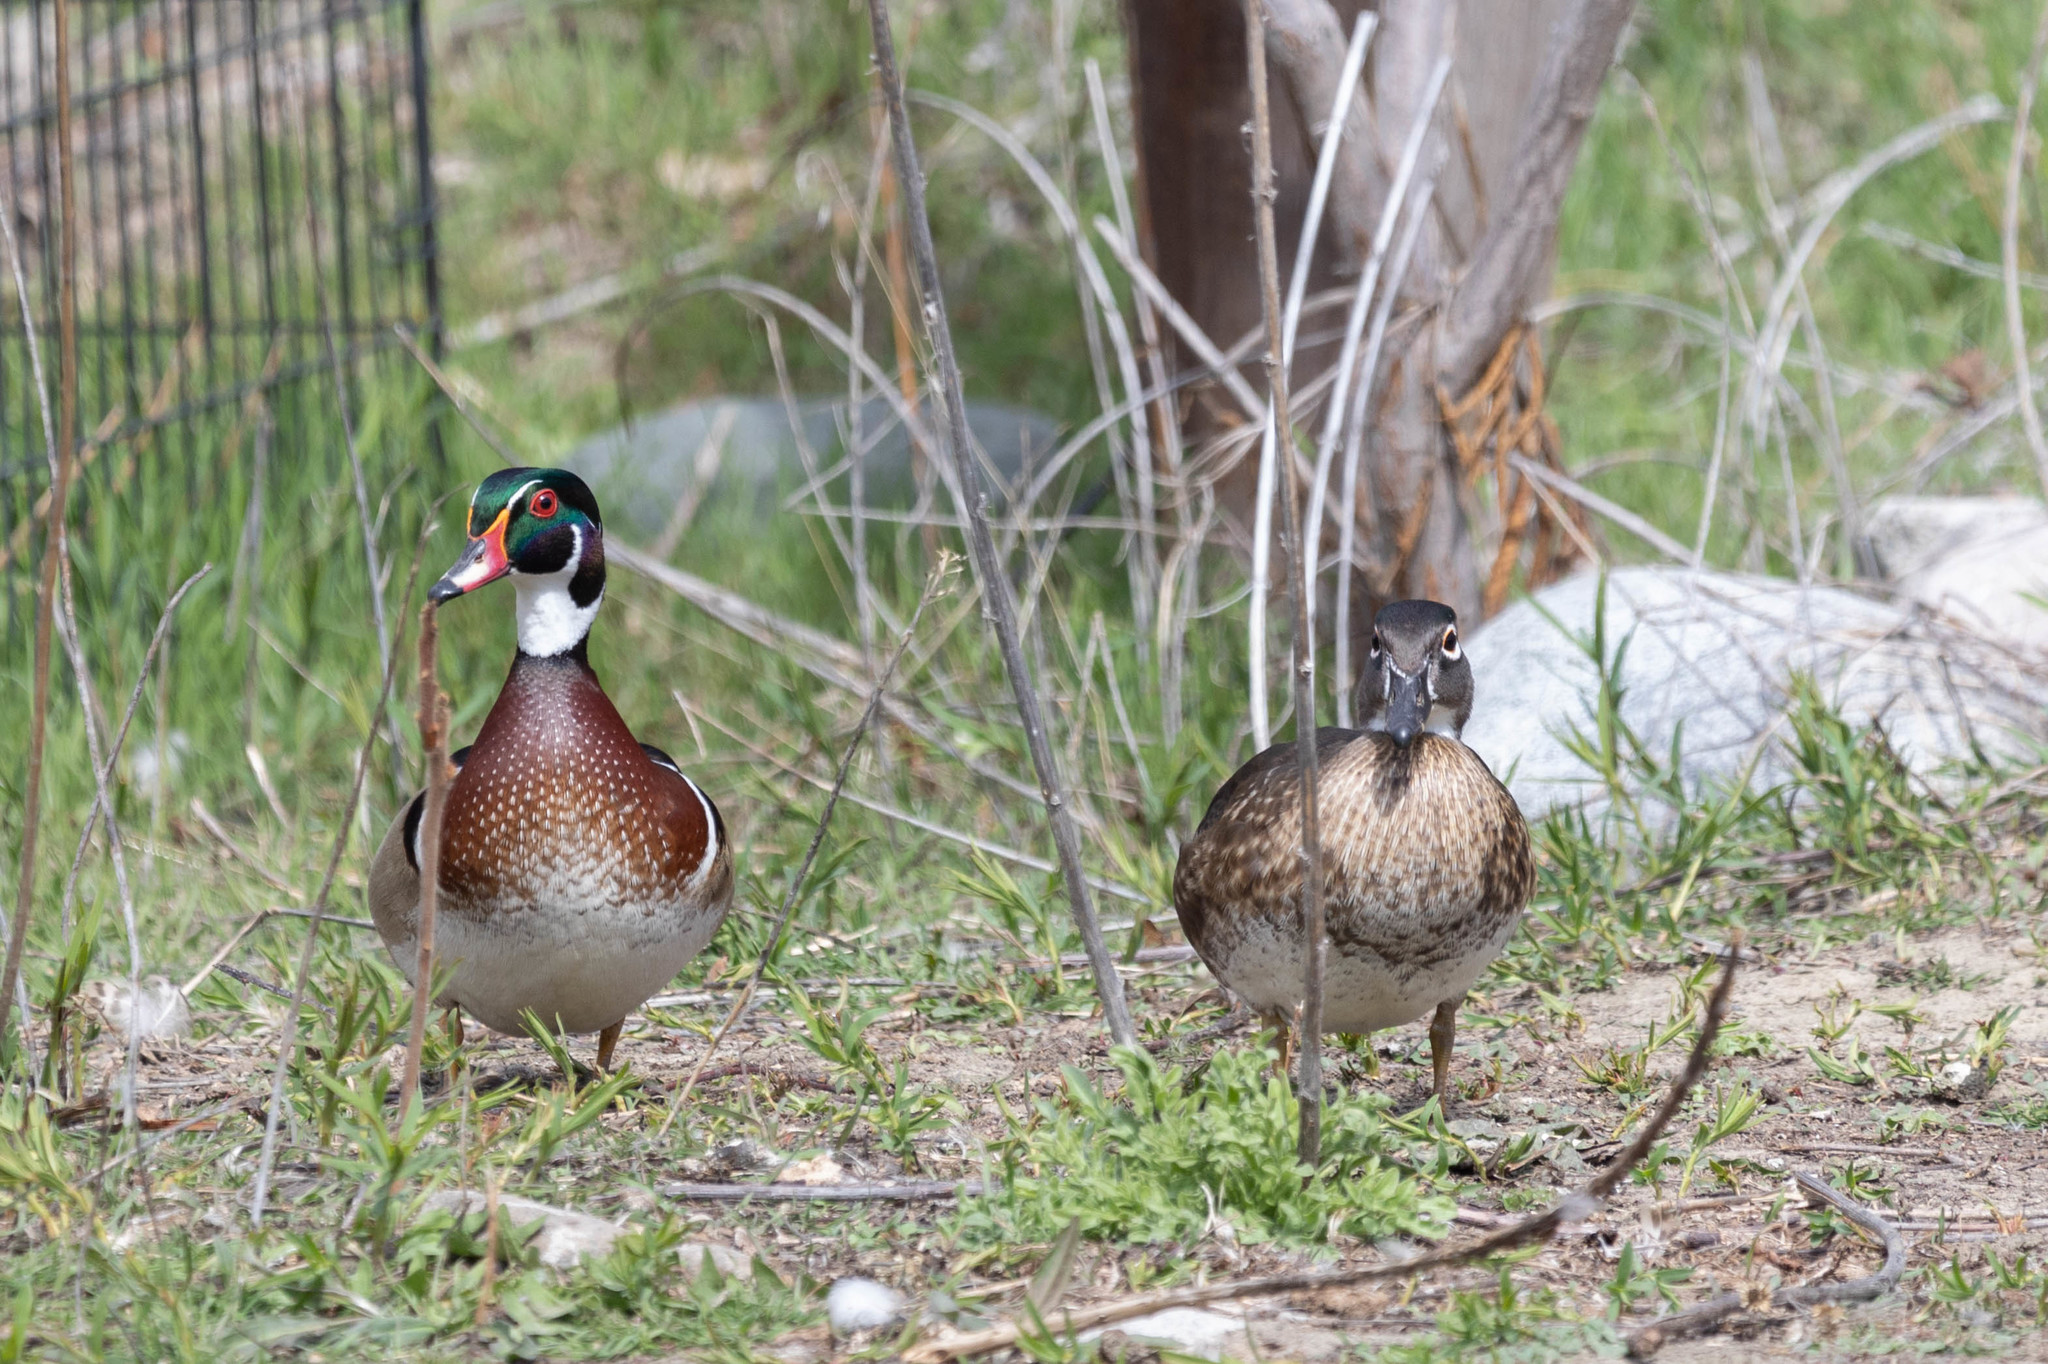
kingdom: Animalia
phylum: Chordata
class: Aves
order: Anseriformes
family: Anatidae
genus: Aix
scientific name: Aix sponsa
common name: Wood duck
